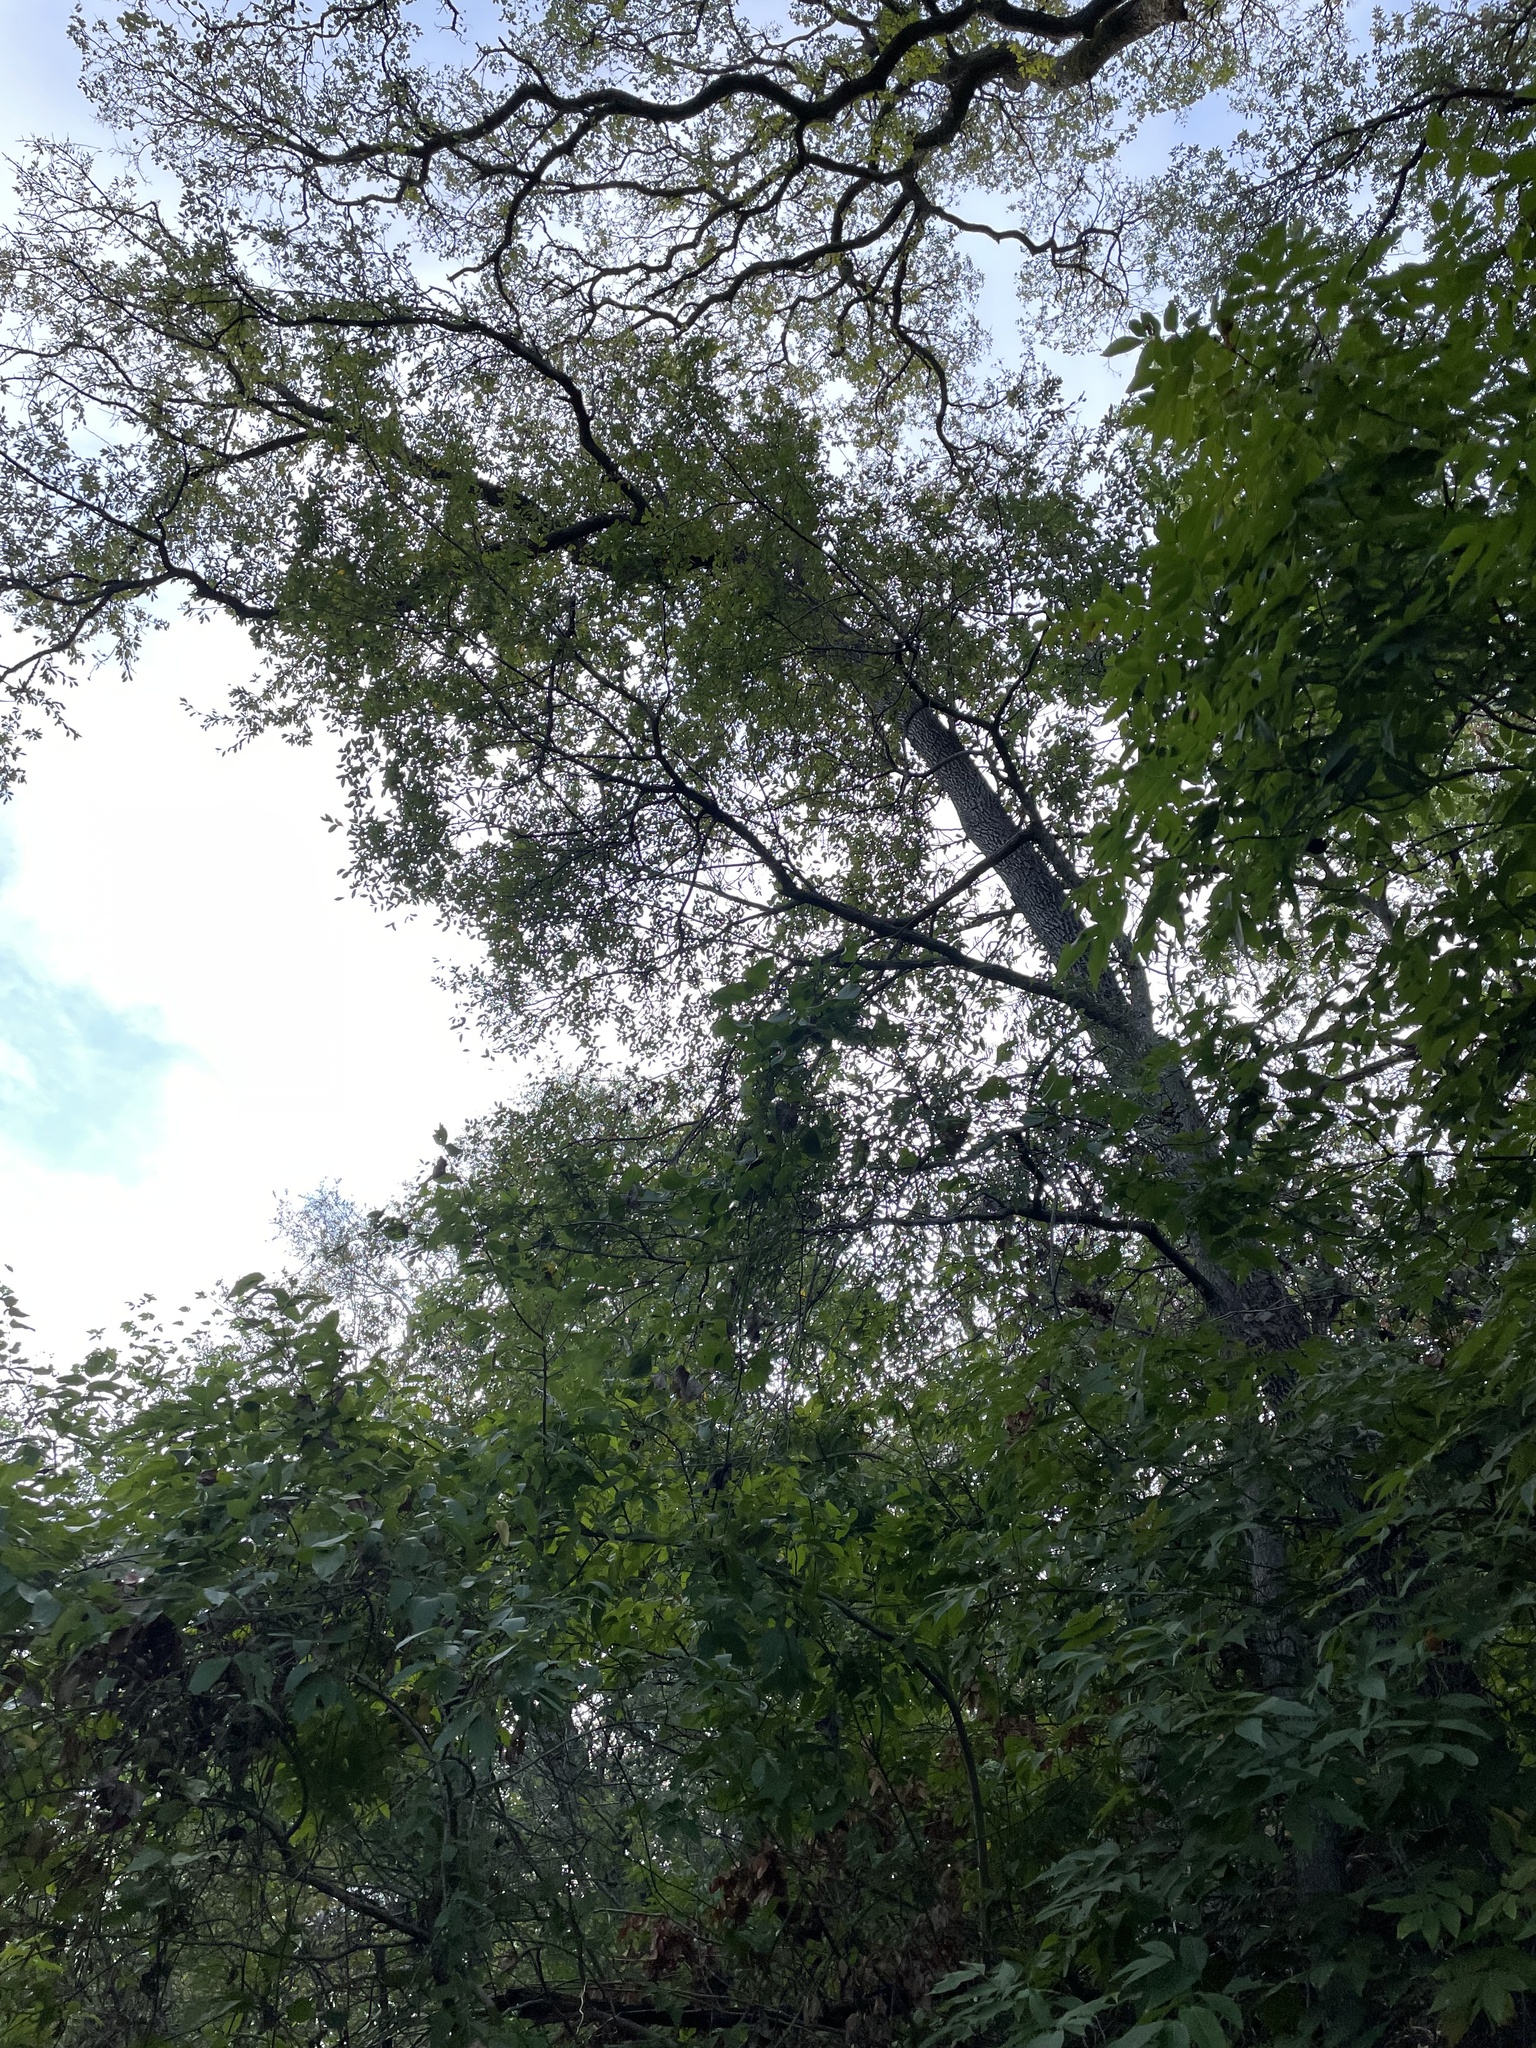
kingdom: Plantae
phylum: Tracheophyta
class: Magnoliopsida
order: Ericales
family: Sapotaceae
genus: Sideroxylon
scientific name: Sideroxylon lanuginosum
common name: Chittamwood
